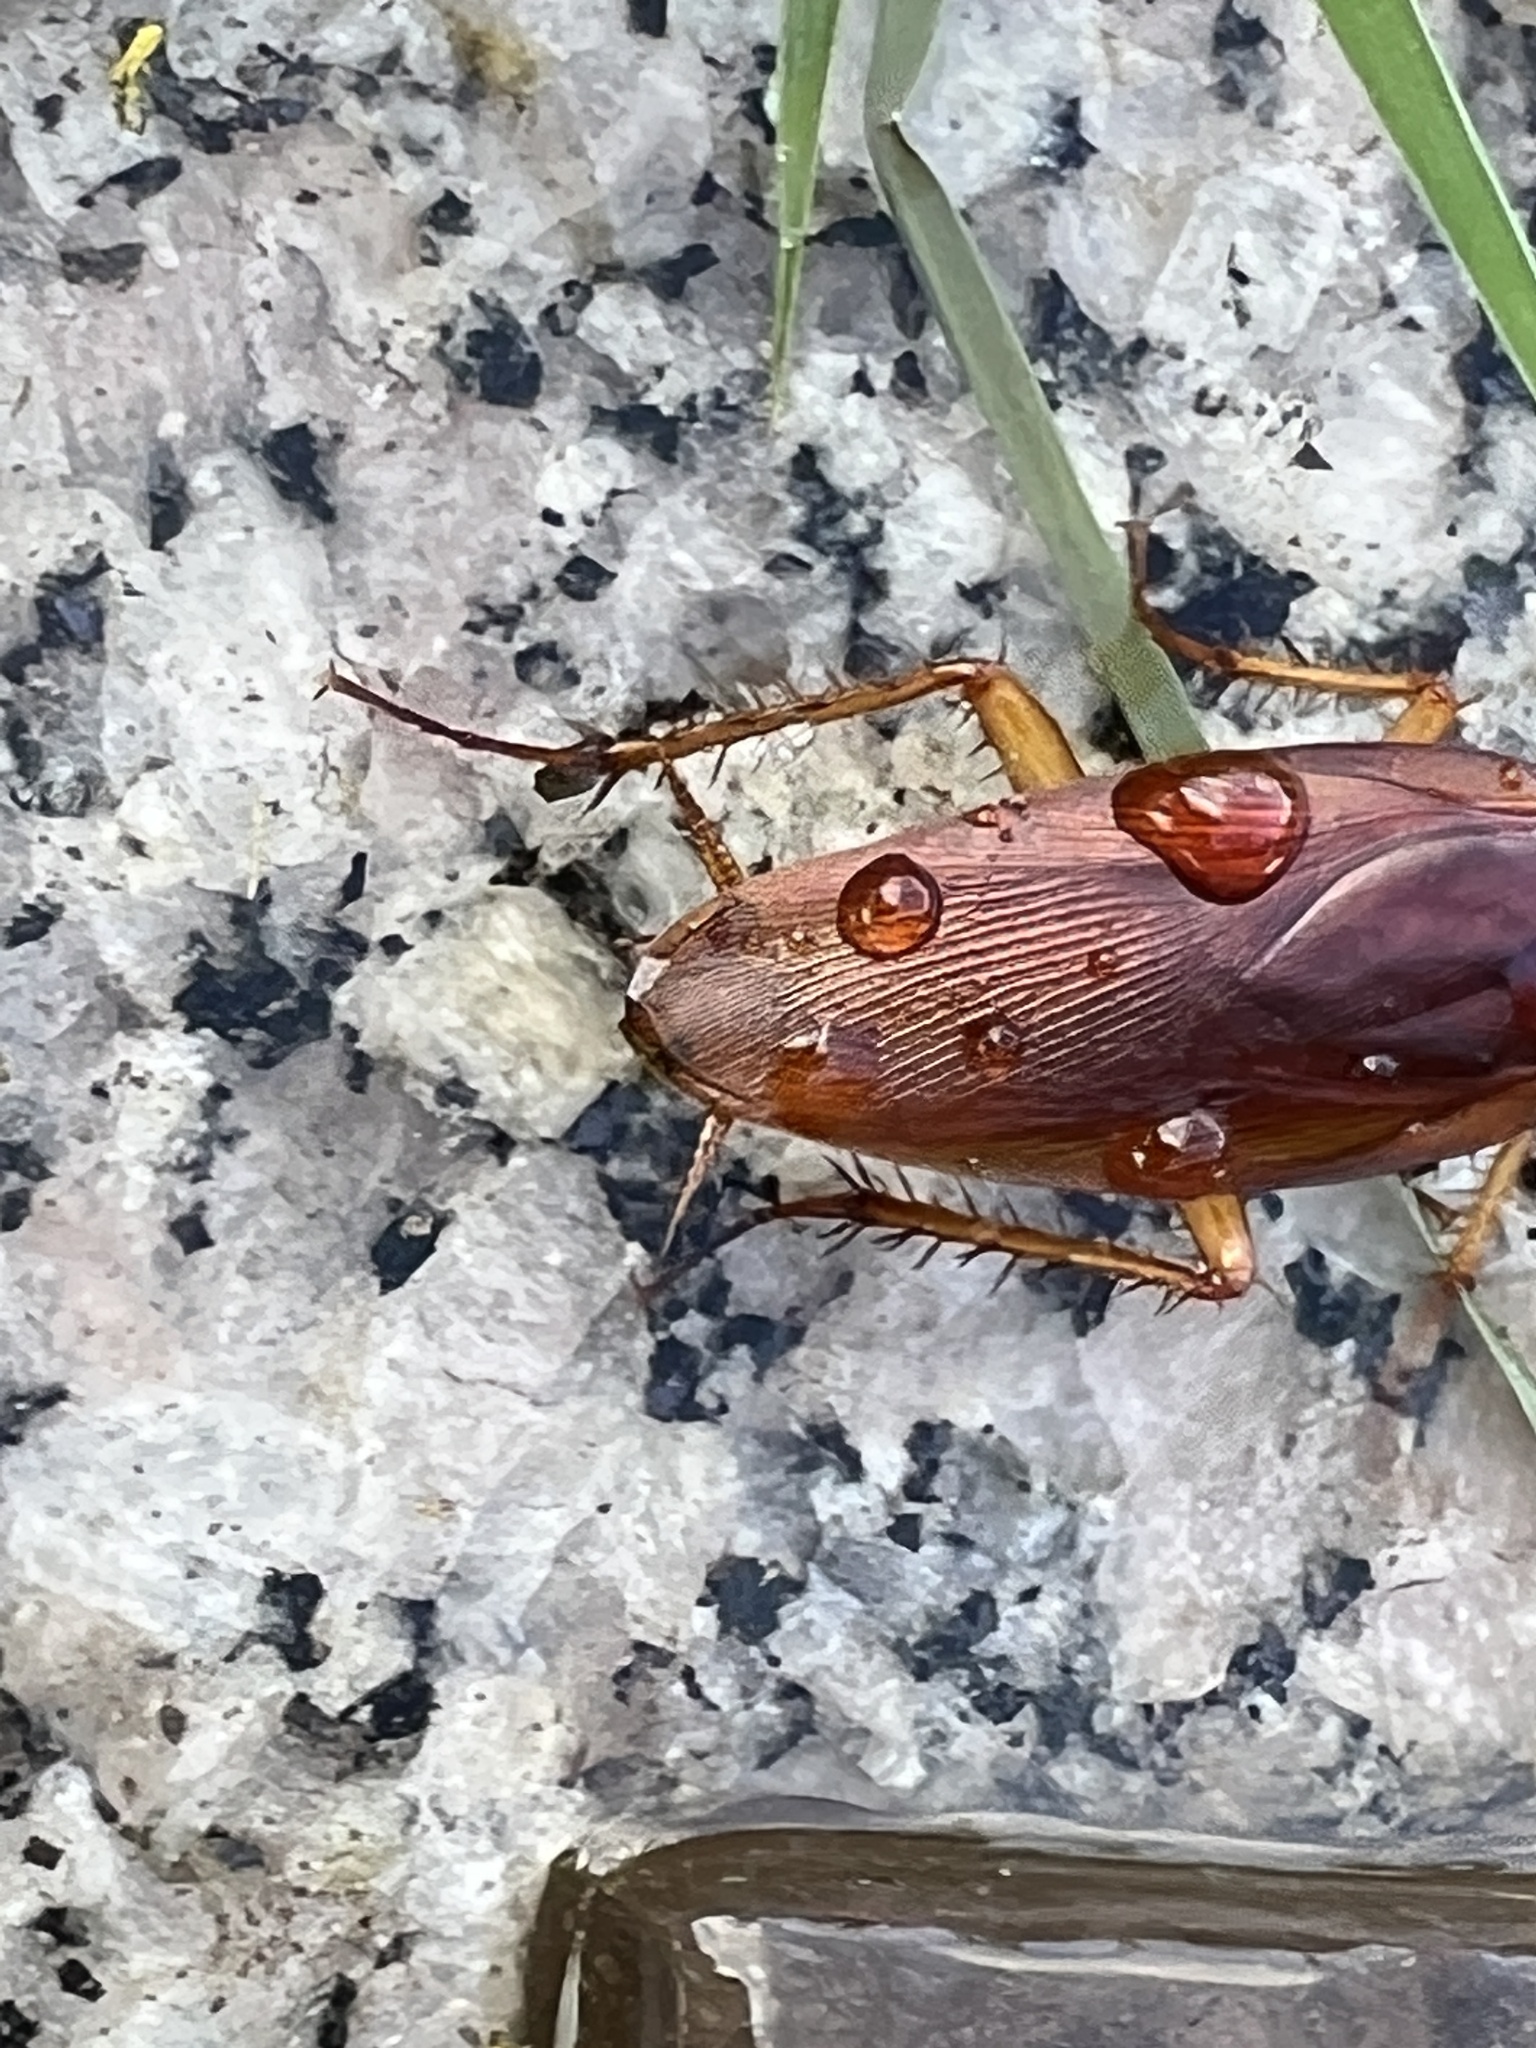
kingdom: Animalia
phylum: Arthropoda
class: Insecta
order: Blattodea
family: Blattidae
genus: Periplaneta
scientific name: Periplaneta americana
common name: American cockroach
